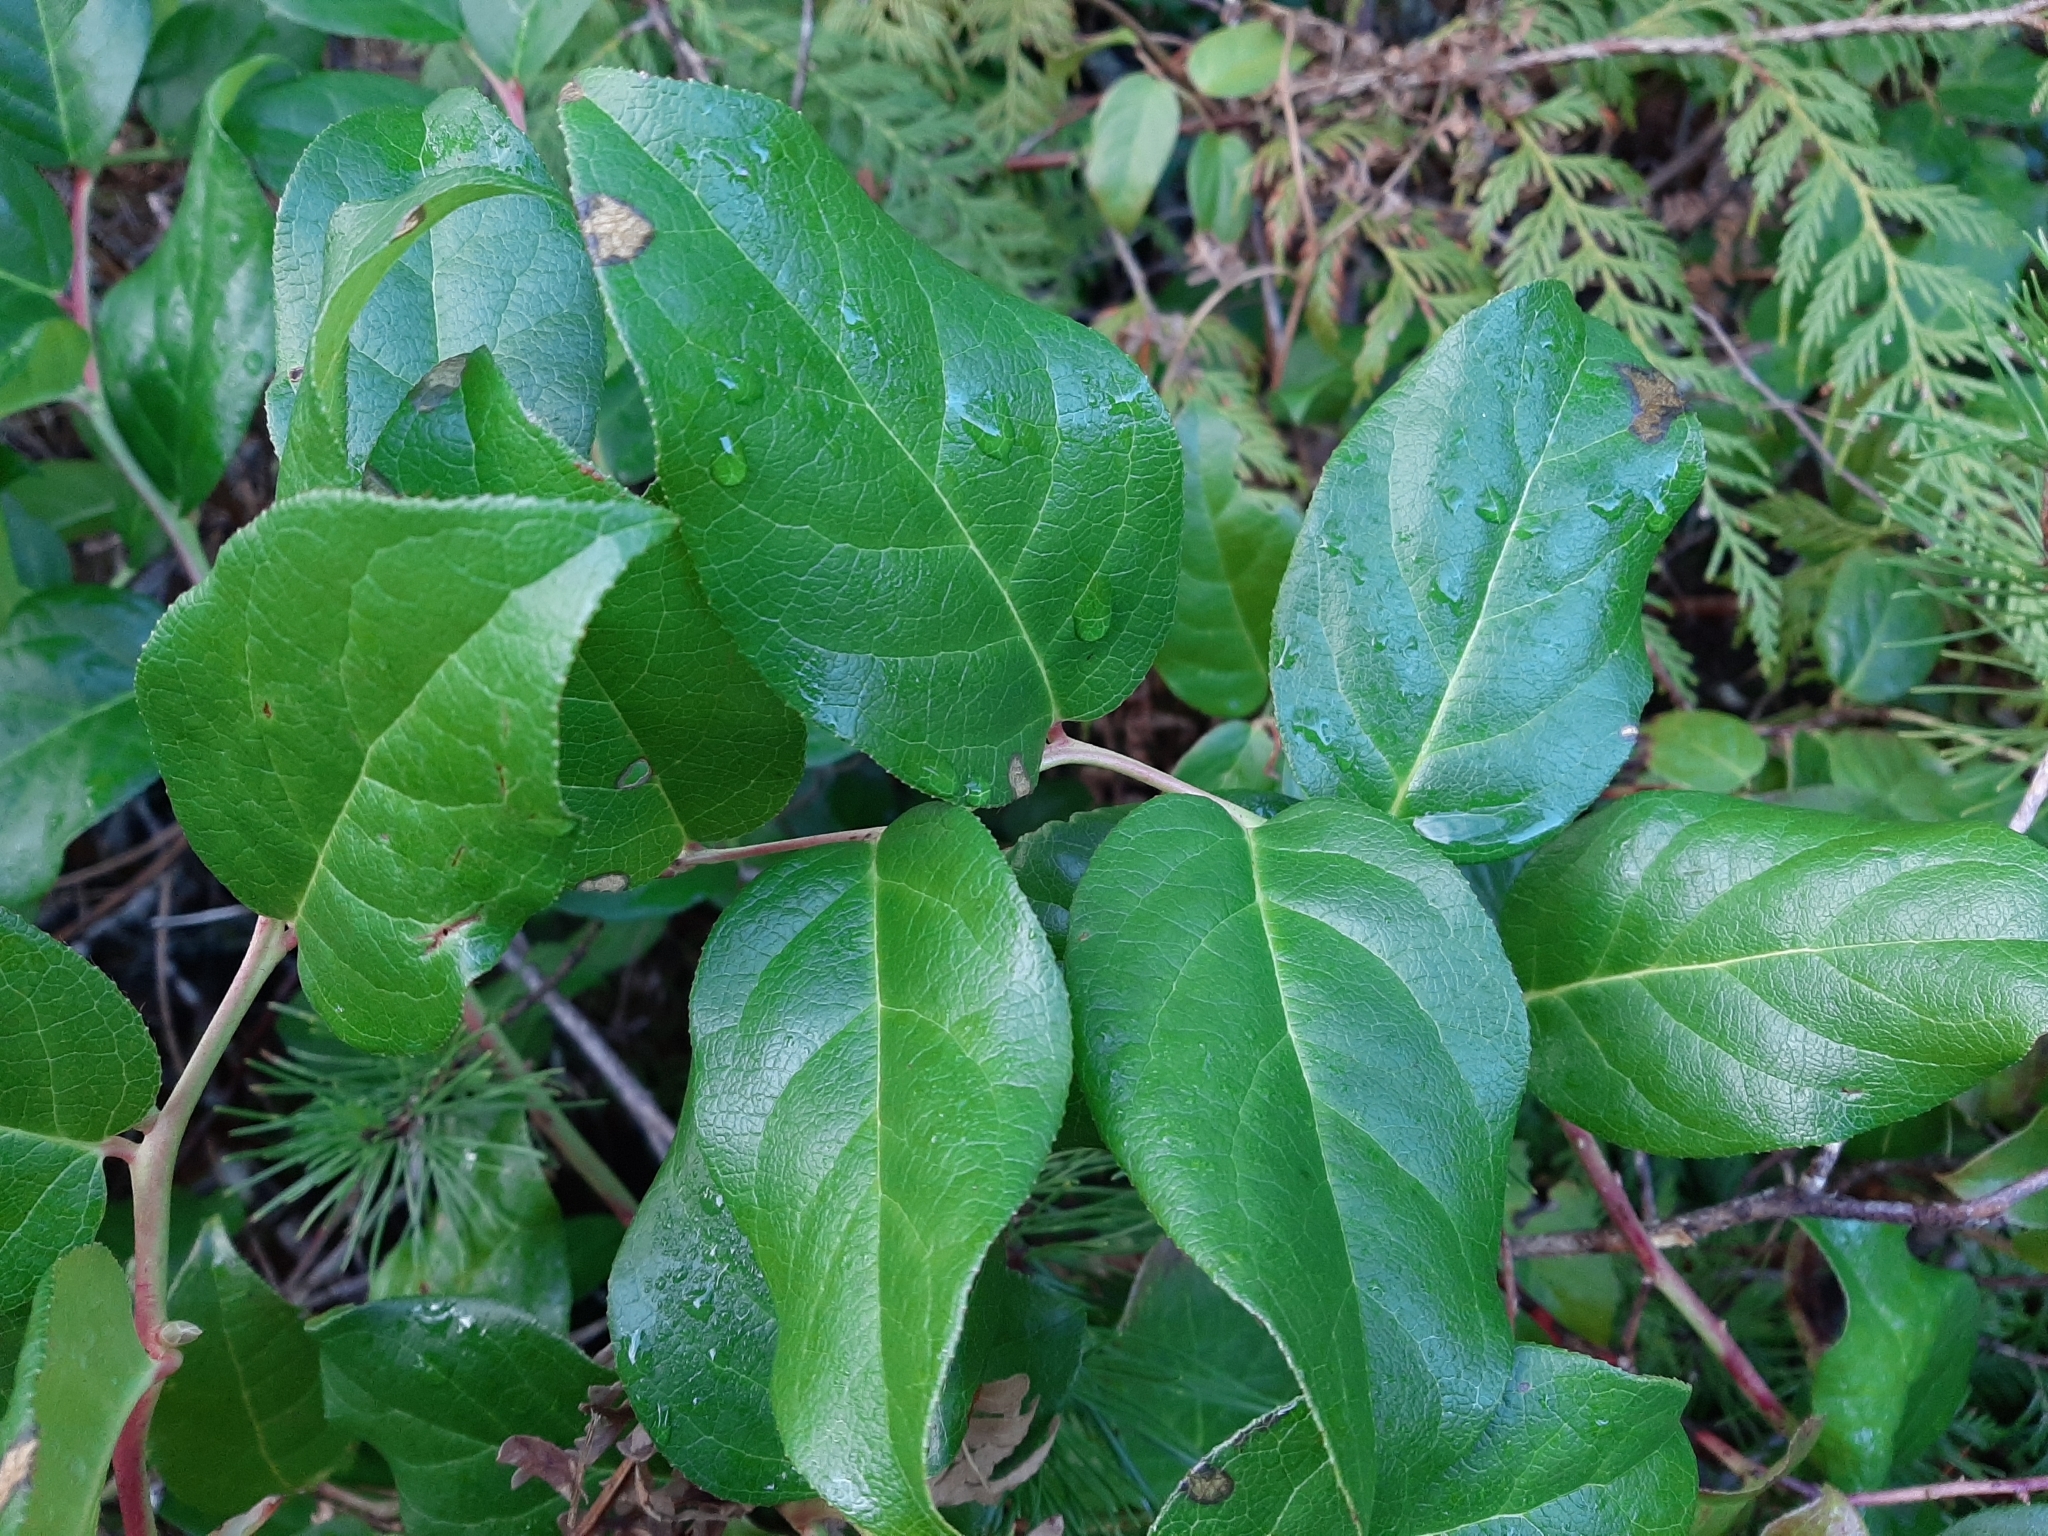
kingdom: Plantae
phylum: Tracheophyta
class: Magnoliopsida
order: Ericales
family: Ericaceae
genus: Gaultheria
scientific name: Gaultheria shallon
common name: Shallon
